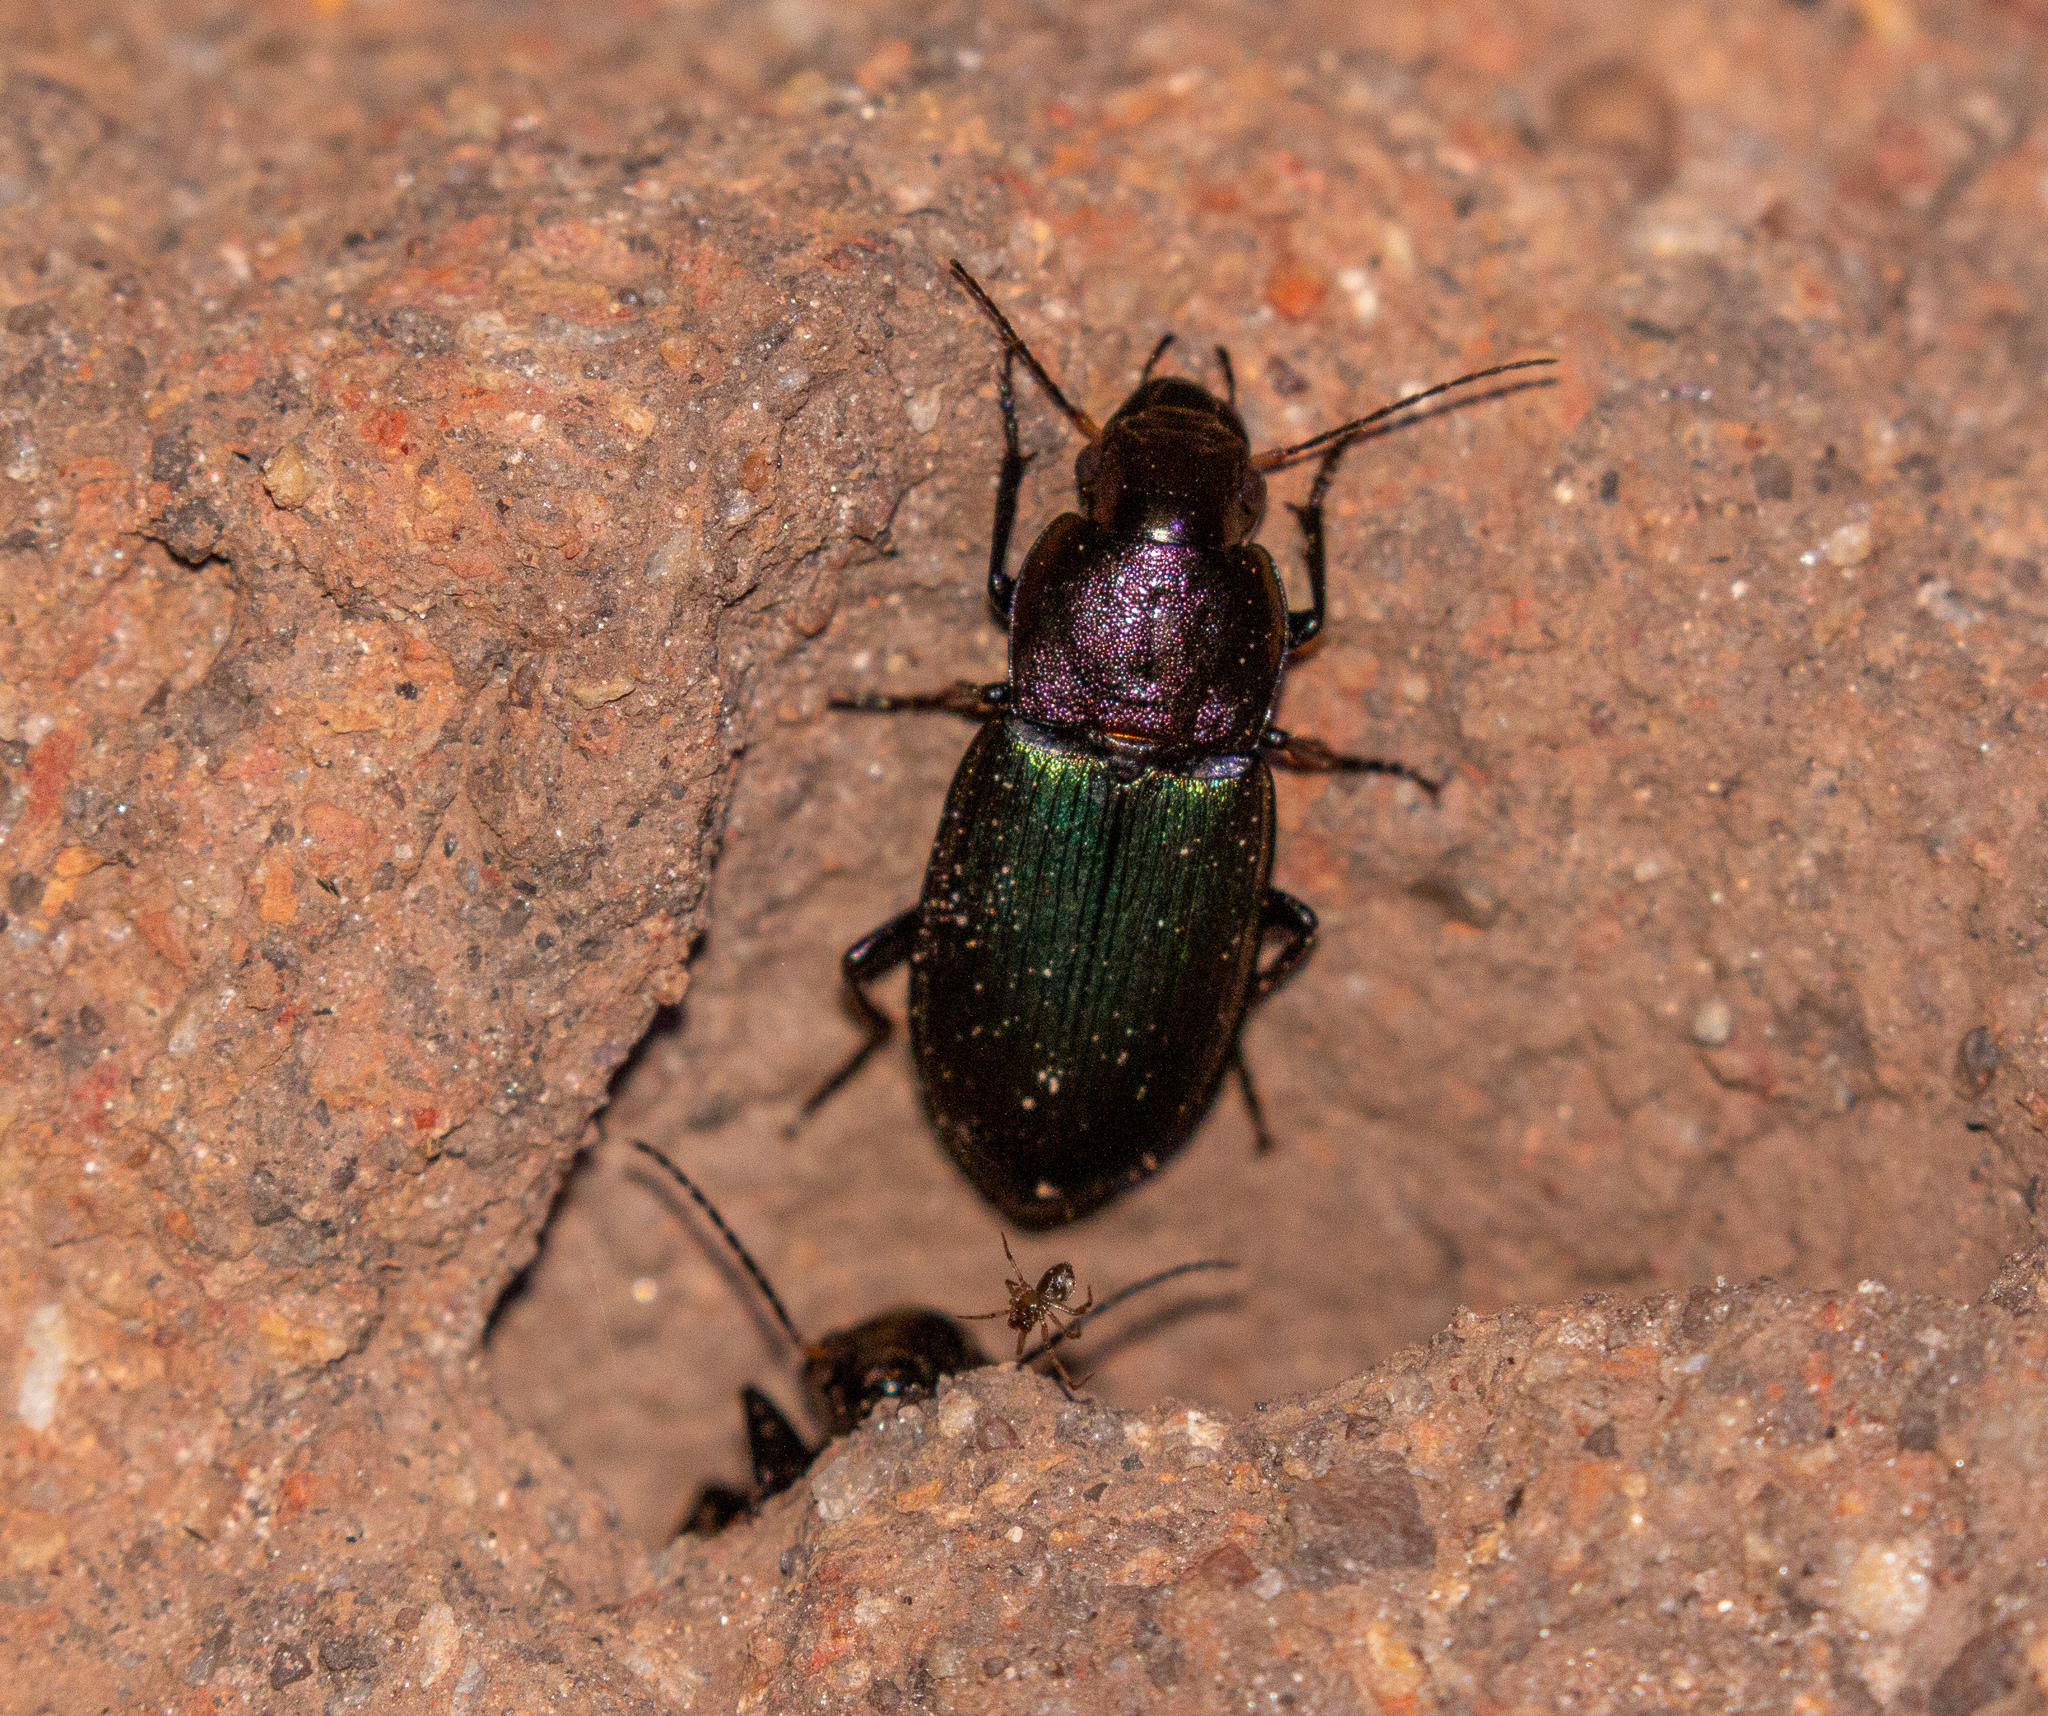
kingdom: Animalia
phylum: Arthropoda
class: Insecta
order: Coleoptera
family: Carabidae
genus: Neoaulacoryssus
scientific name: Neoaulacoryssus speciosus
